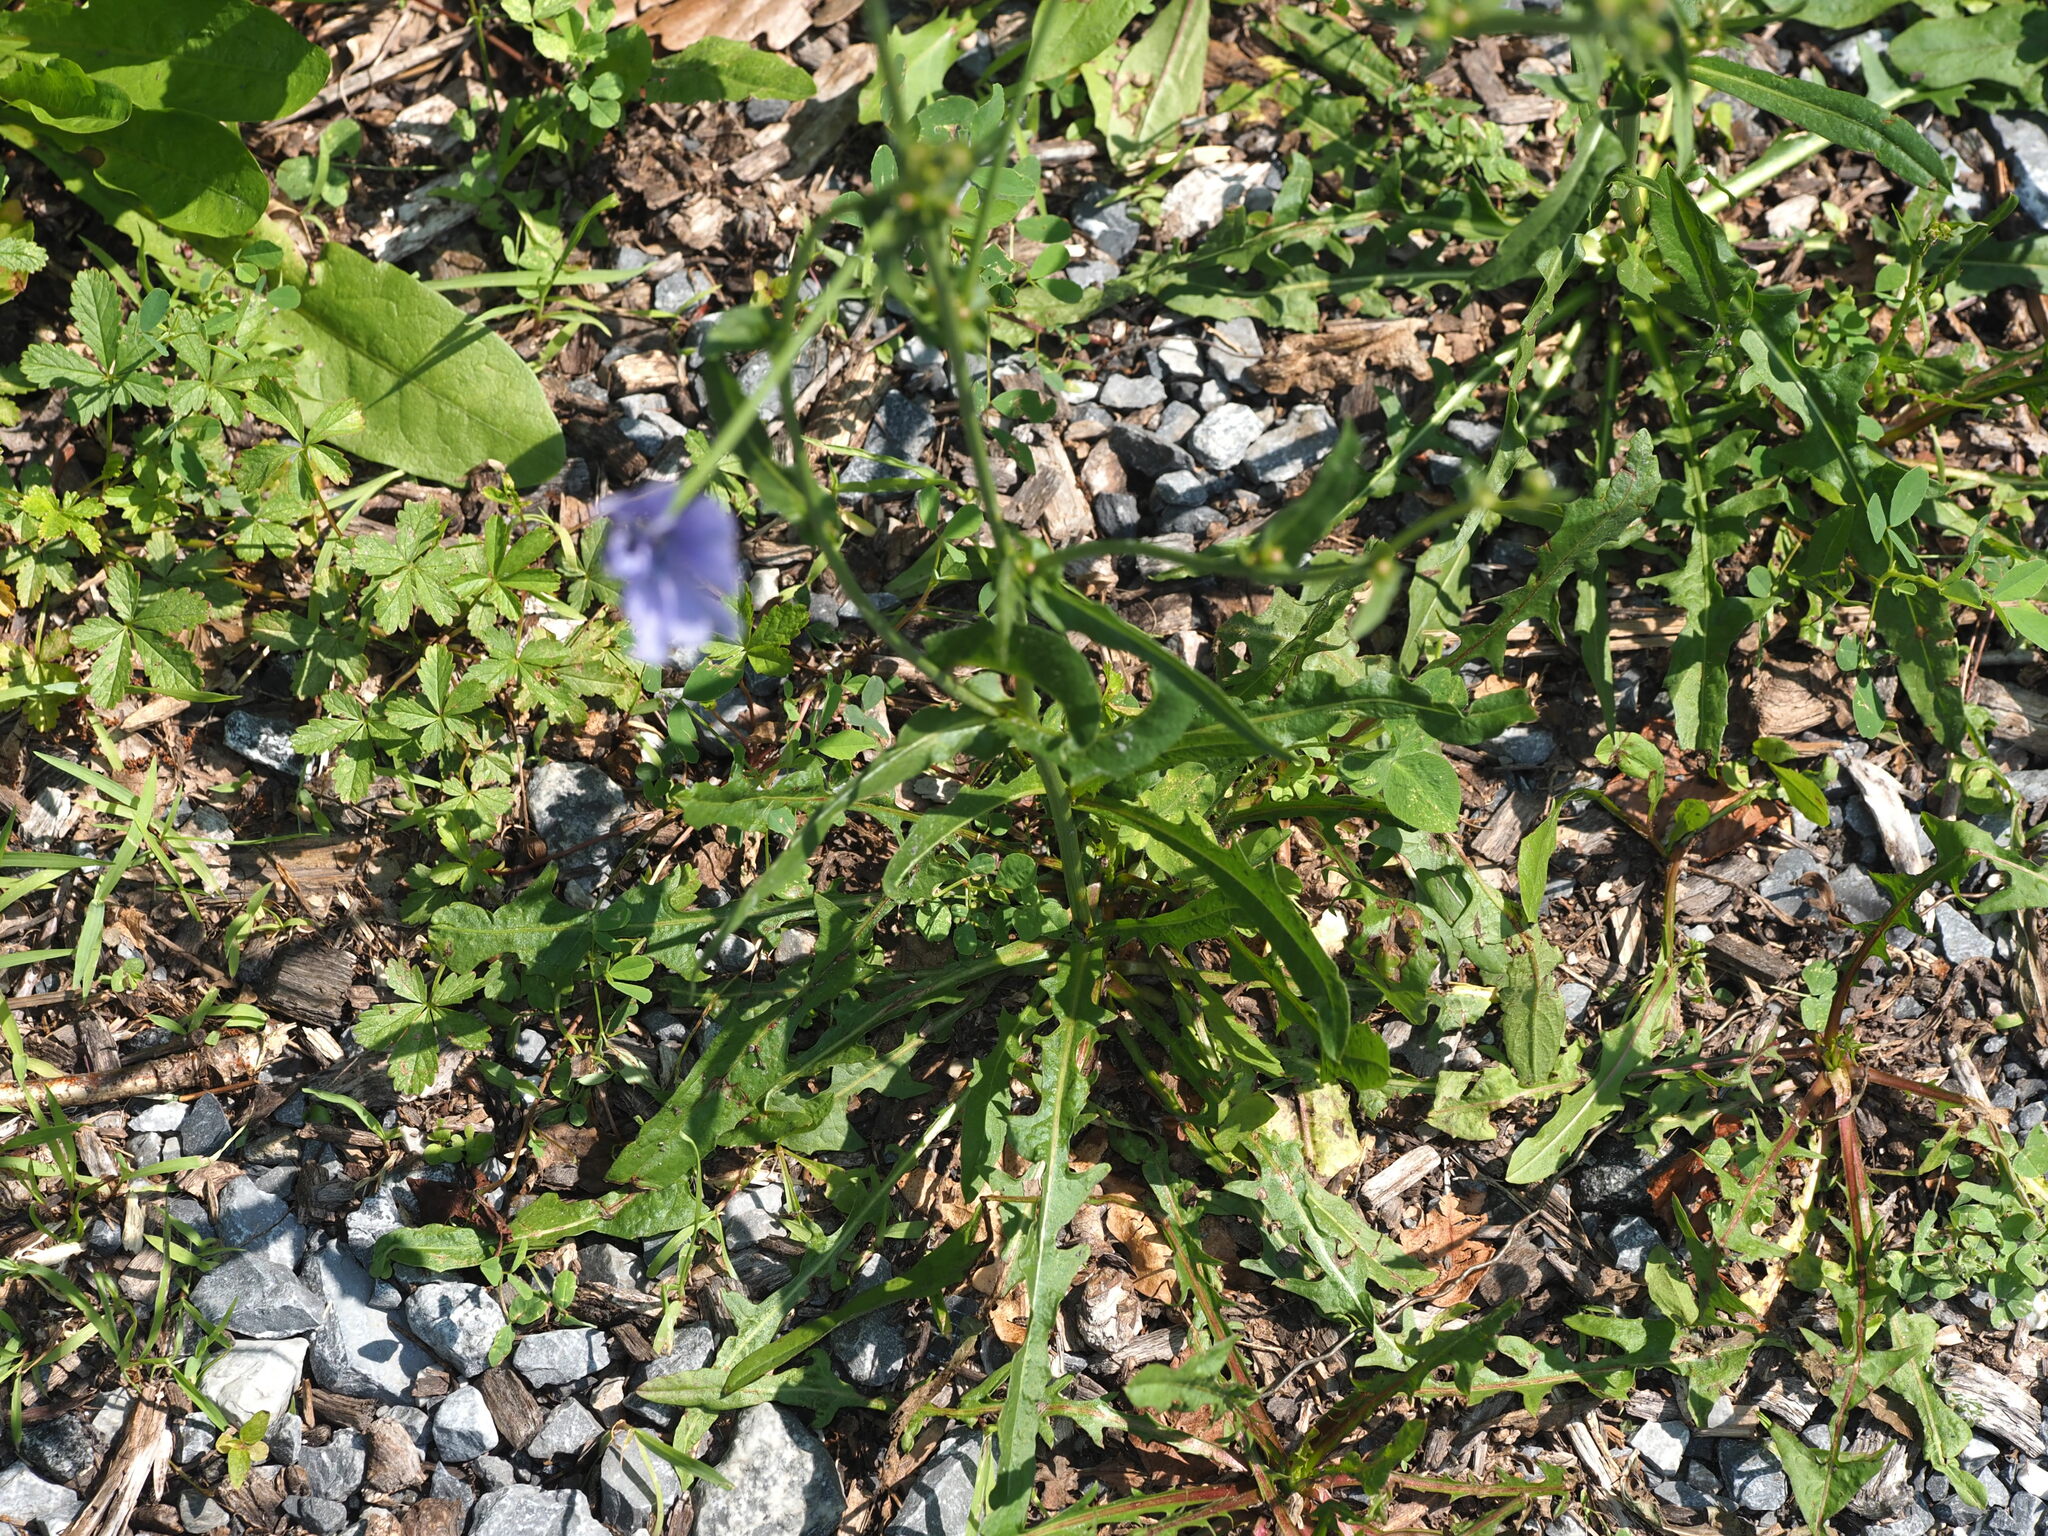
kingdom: Plantae
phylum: Tracheophyta
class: Magnoliopsida
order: Asterales
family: Asteraceae
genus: Cichorium
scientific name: Cichorium intybus
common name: Chicory
